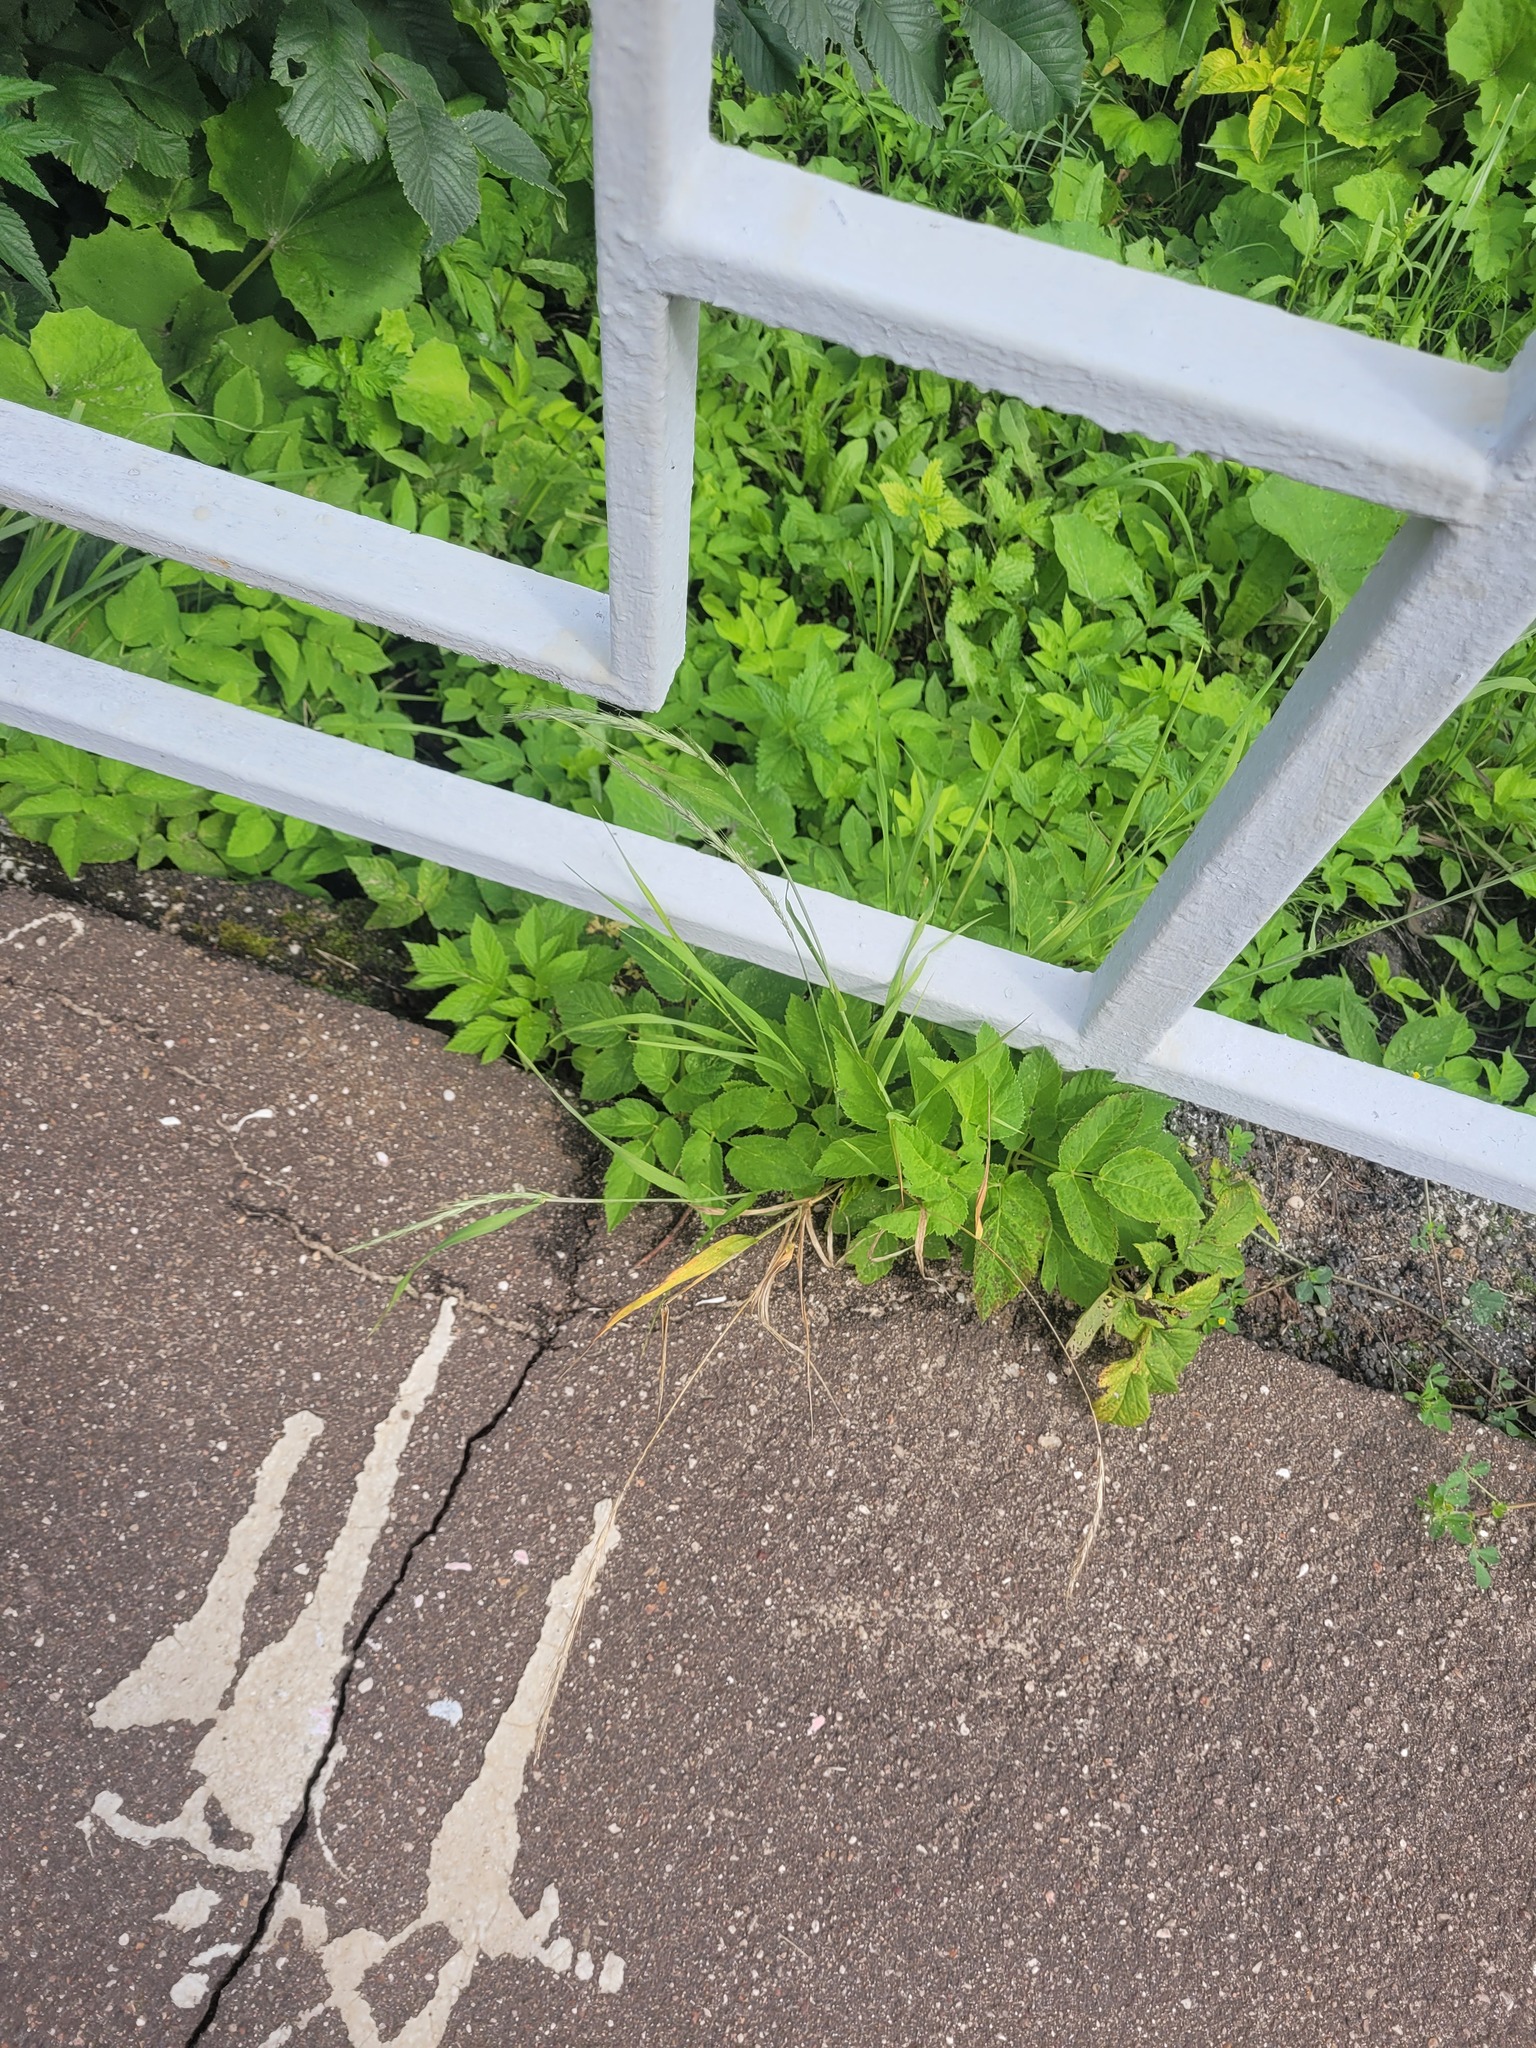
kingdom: Plantae
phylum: Tracheophyta
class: Liliopsida
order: Poales
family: Poaceae
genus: Elymus
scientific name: Elymus caninus
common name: Bearded couch
